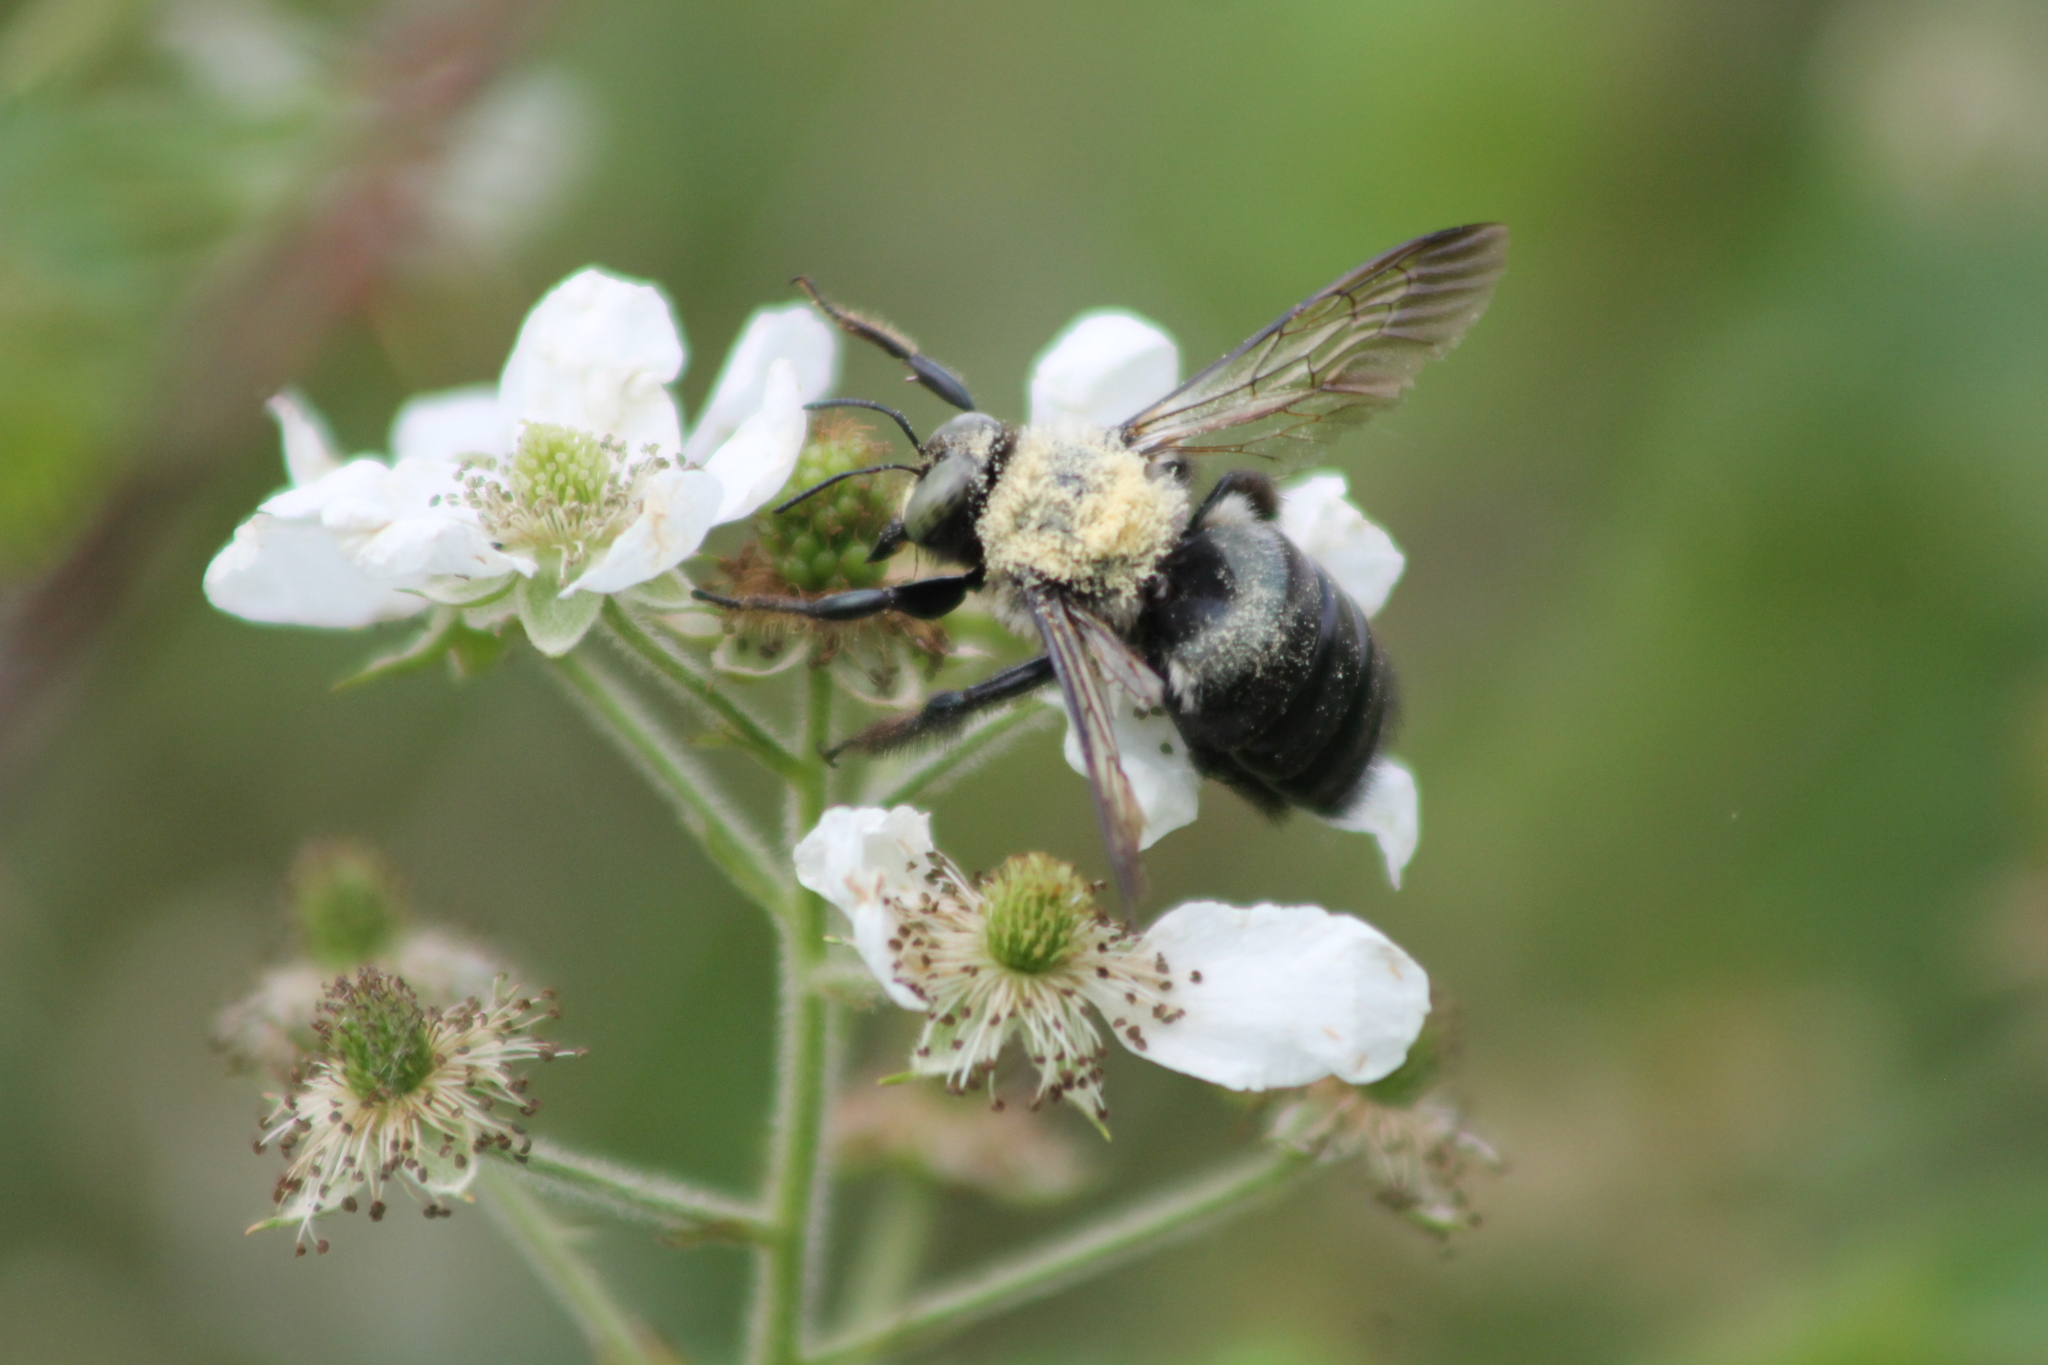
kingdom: Animalia
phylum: Arthropoda
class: Insecta
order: Hymenoptera
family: Apidae
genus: Xylocopa
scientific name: Xylocopa virginica
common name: Carpenter bee
